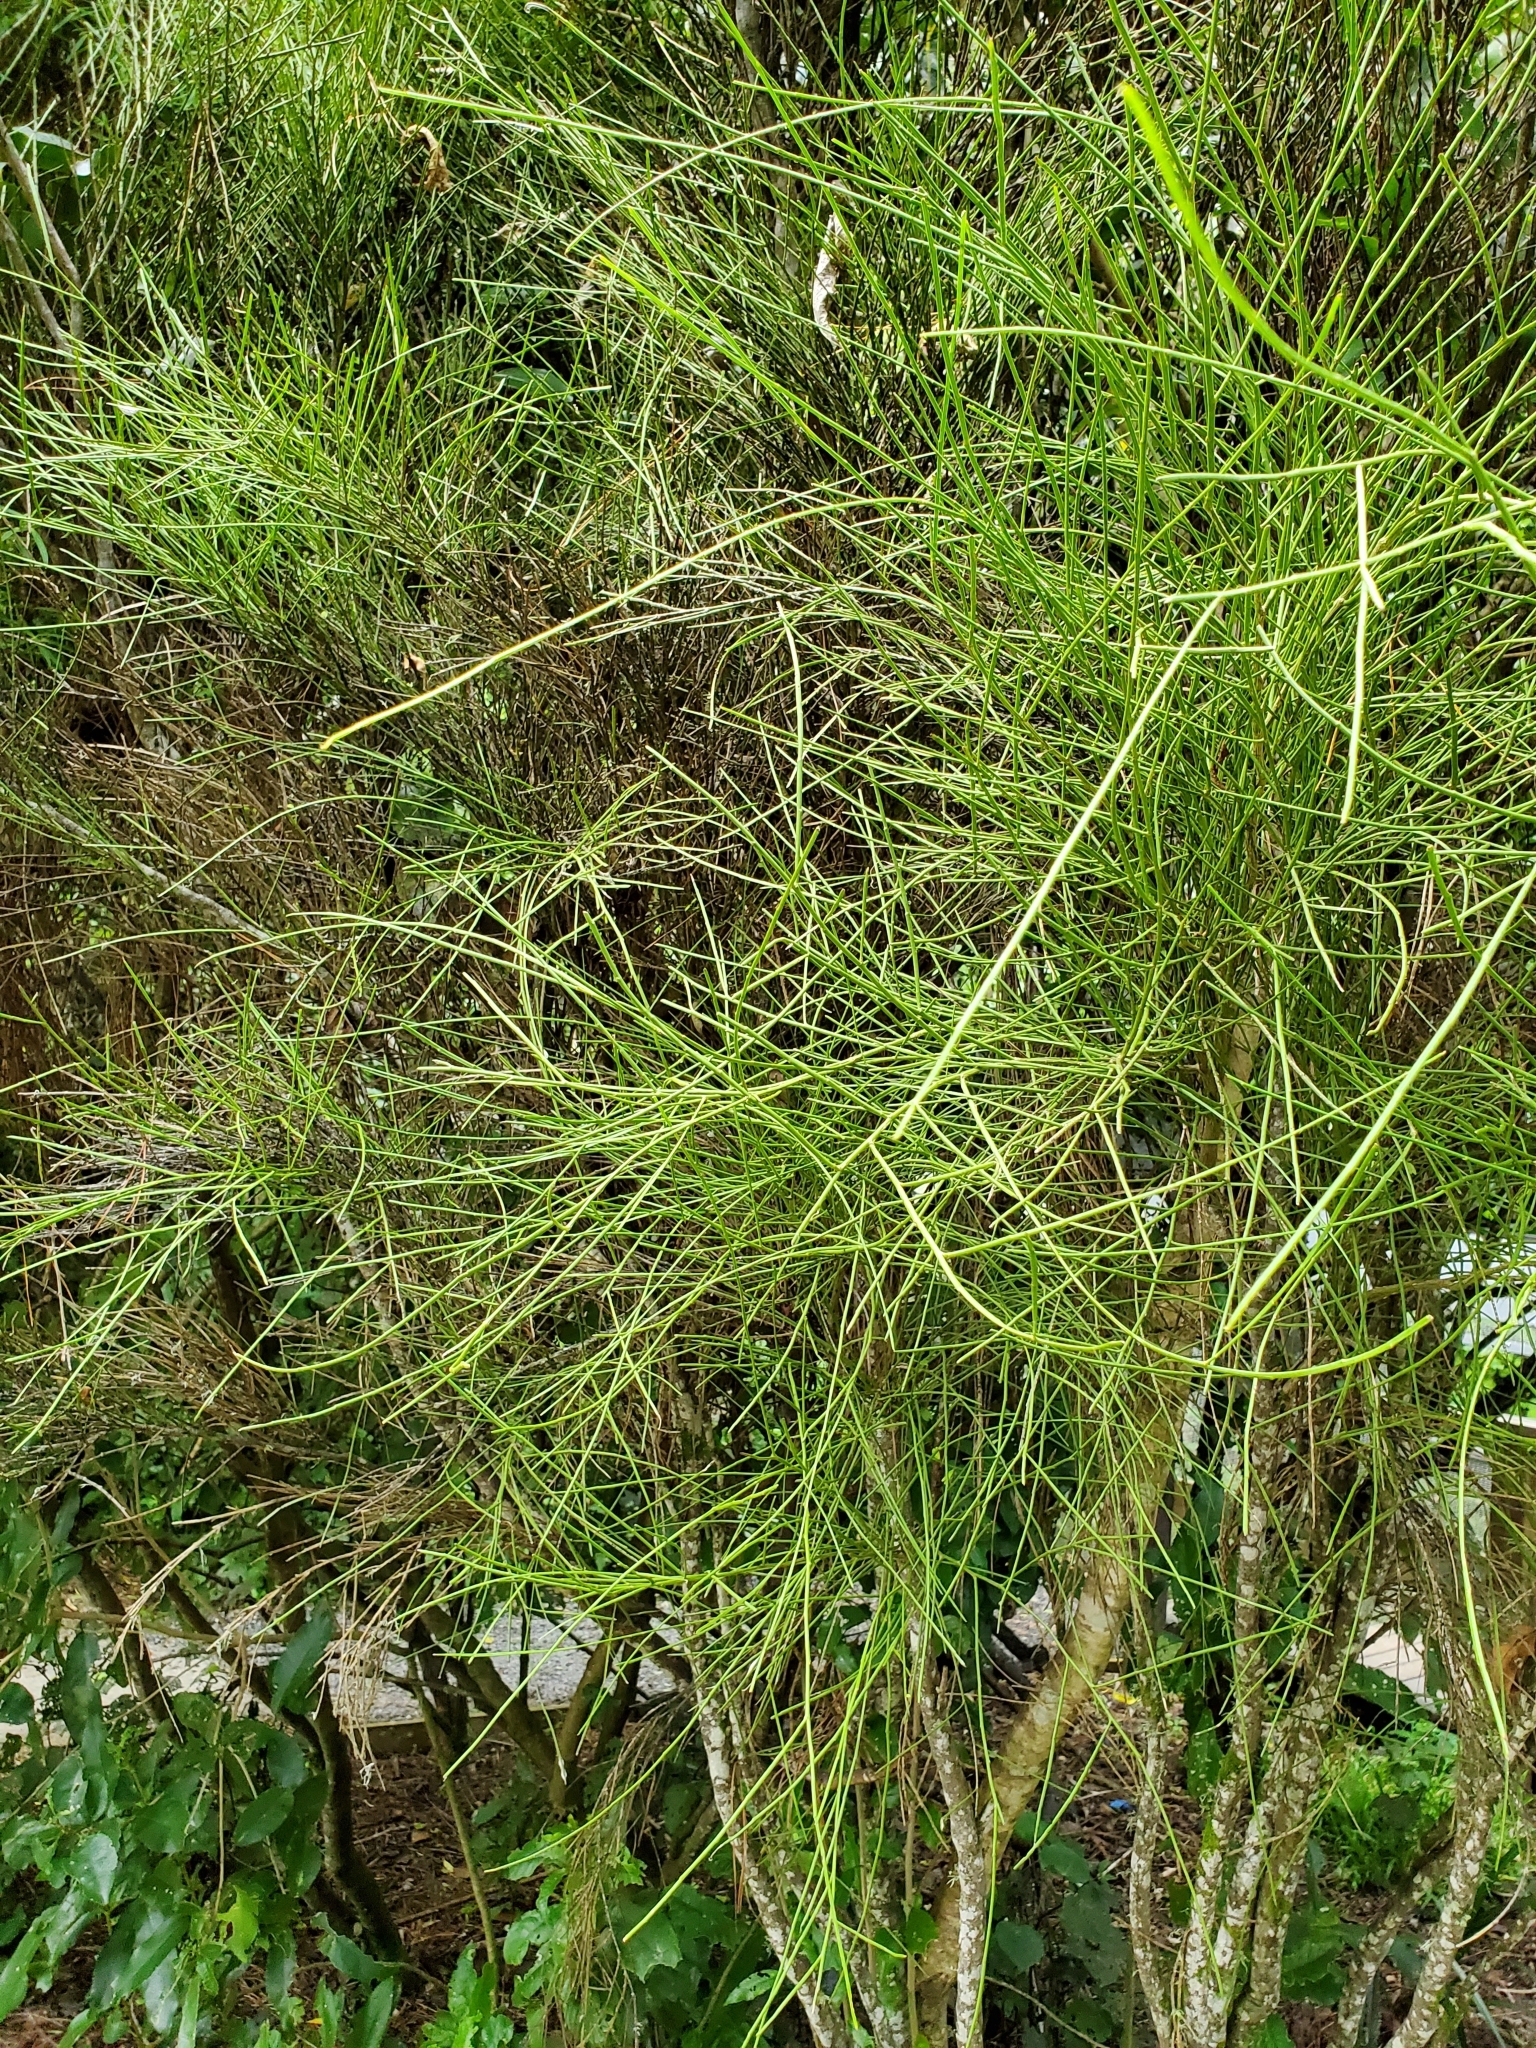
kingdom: Plantae
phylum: Tracheophyta
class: Magnoliopsida
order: Fabales
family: Fabaceae
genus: Carmichaelia
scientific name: Carmichaelia australis
